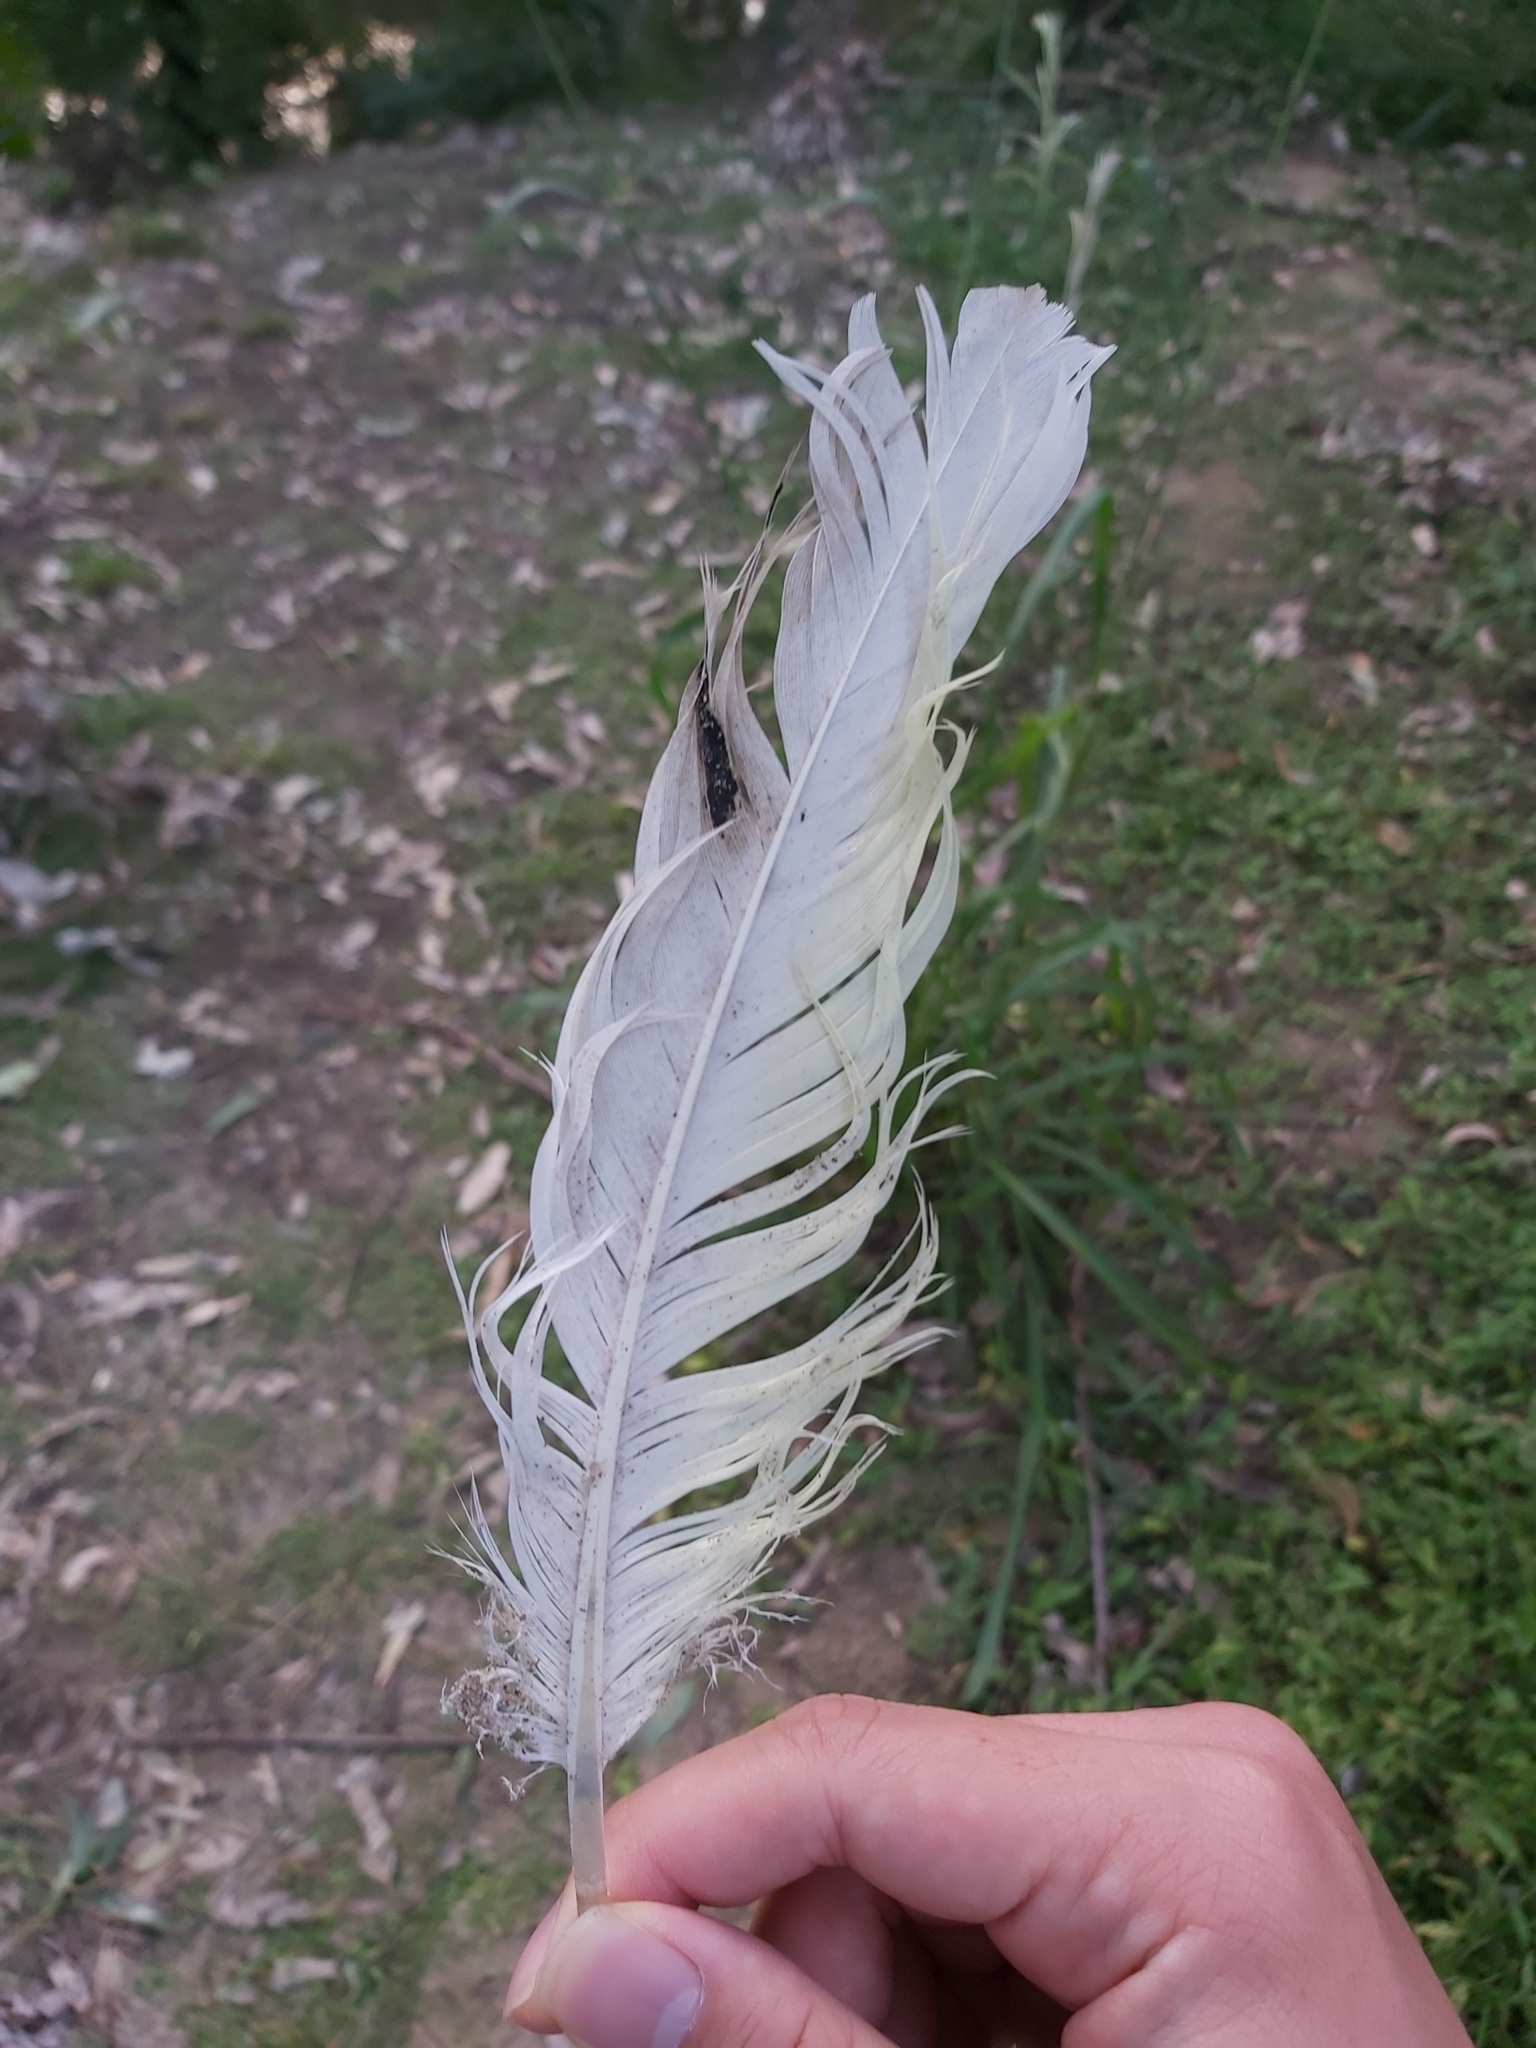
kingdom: Animalia
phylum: Chordata
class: Aves
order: Psittaciformes
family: Psittacidae
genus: Cacatua
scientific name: Cacatua galerita
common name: Sulphur-crested cockatoo
